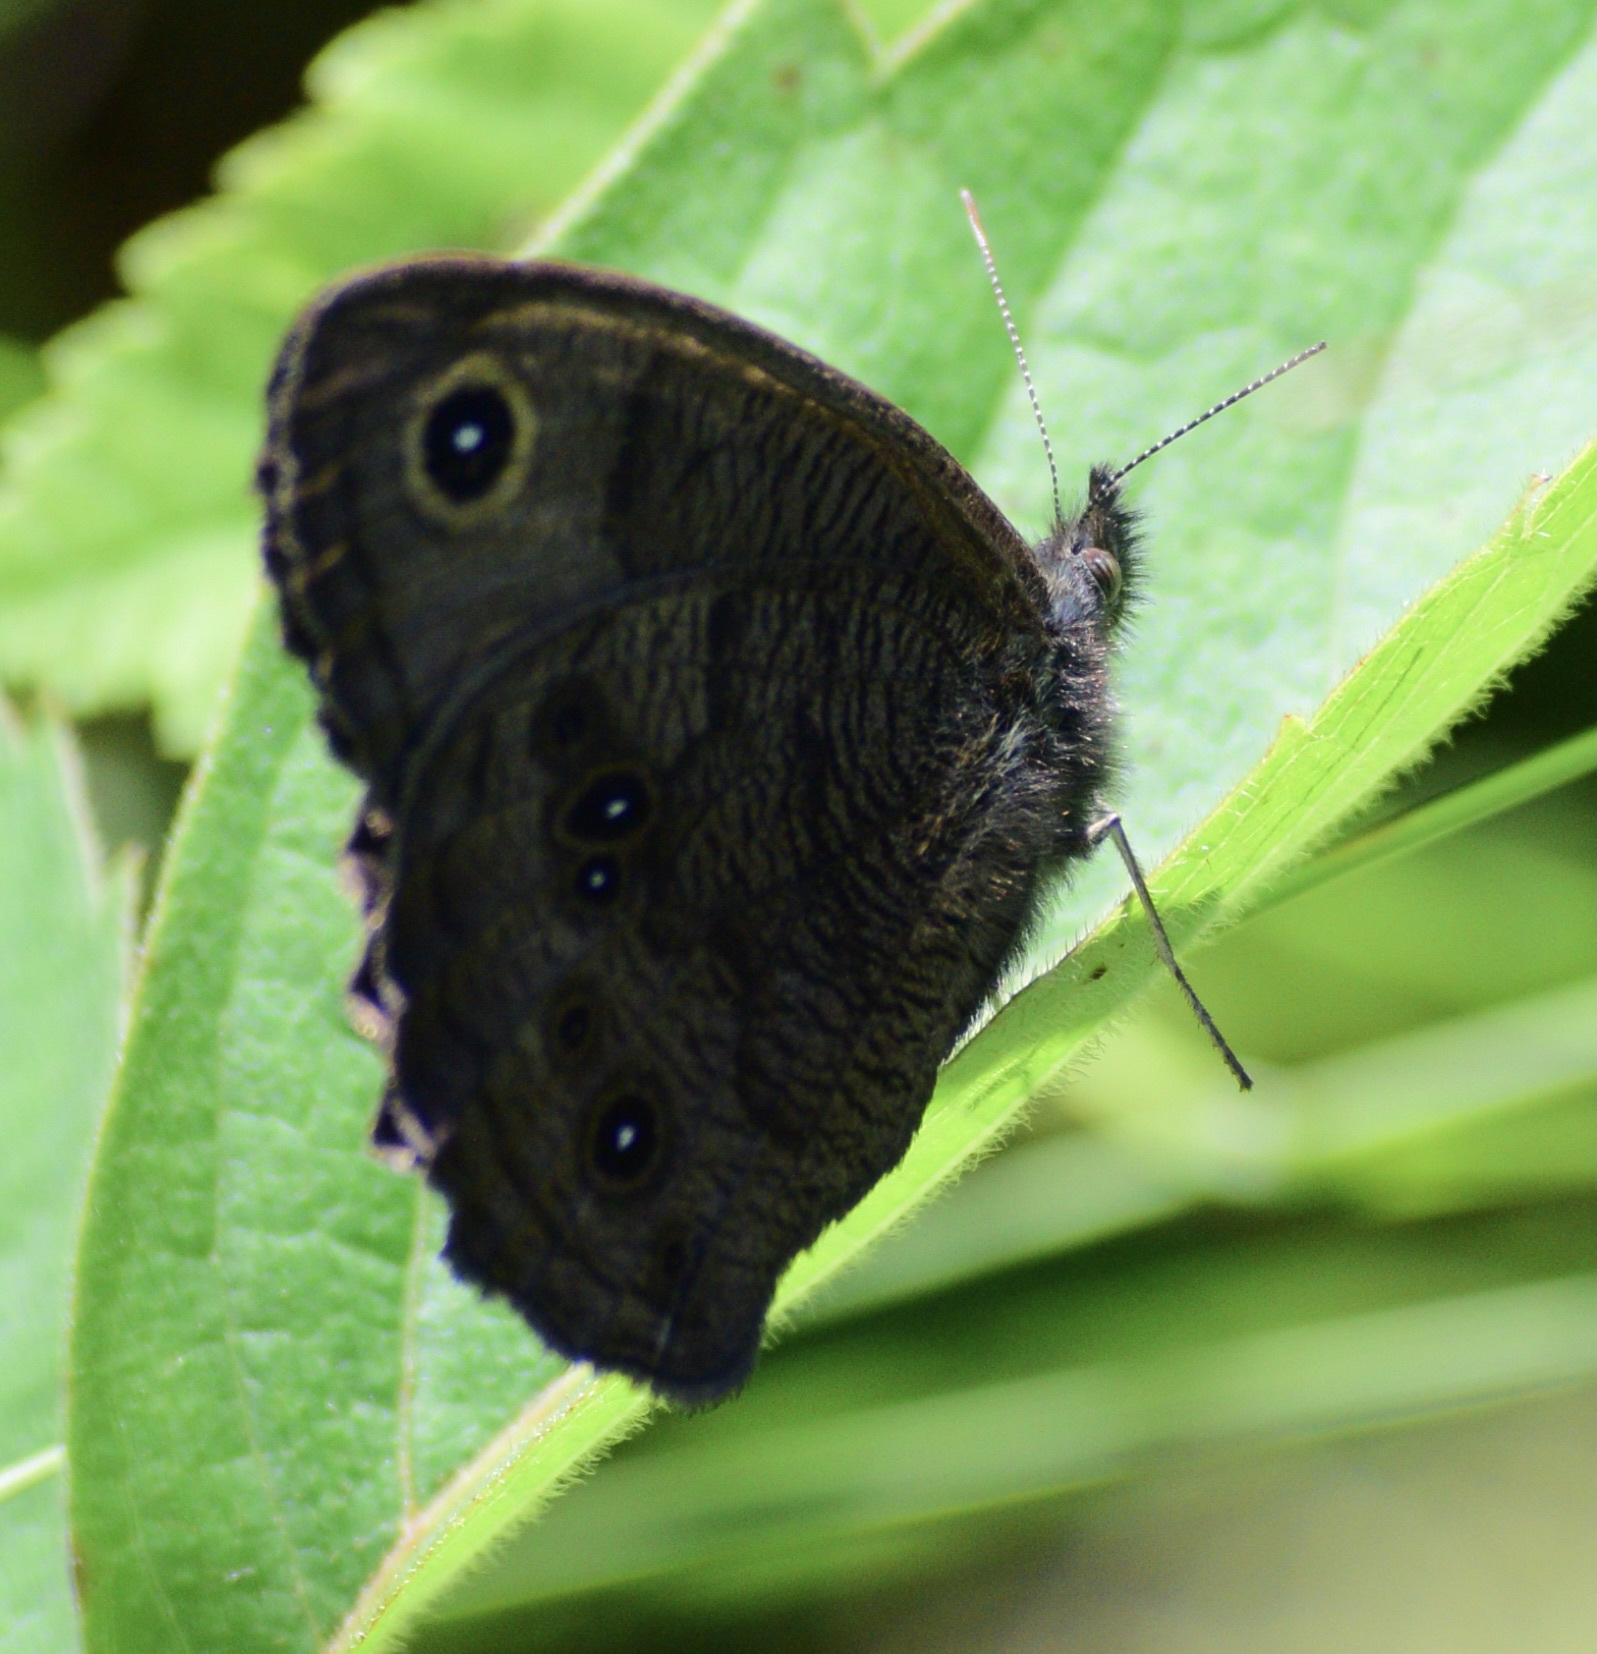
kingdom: Animalia
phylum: Arthropoda
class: Insecta
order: Lepidoptera
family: Nymphalidae
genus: Cercyonis
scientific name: Cercyonis pegala
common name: Common wood-nymph
